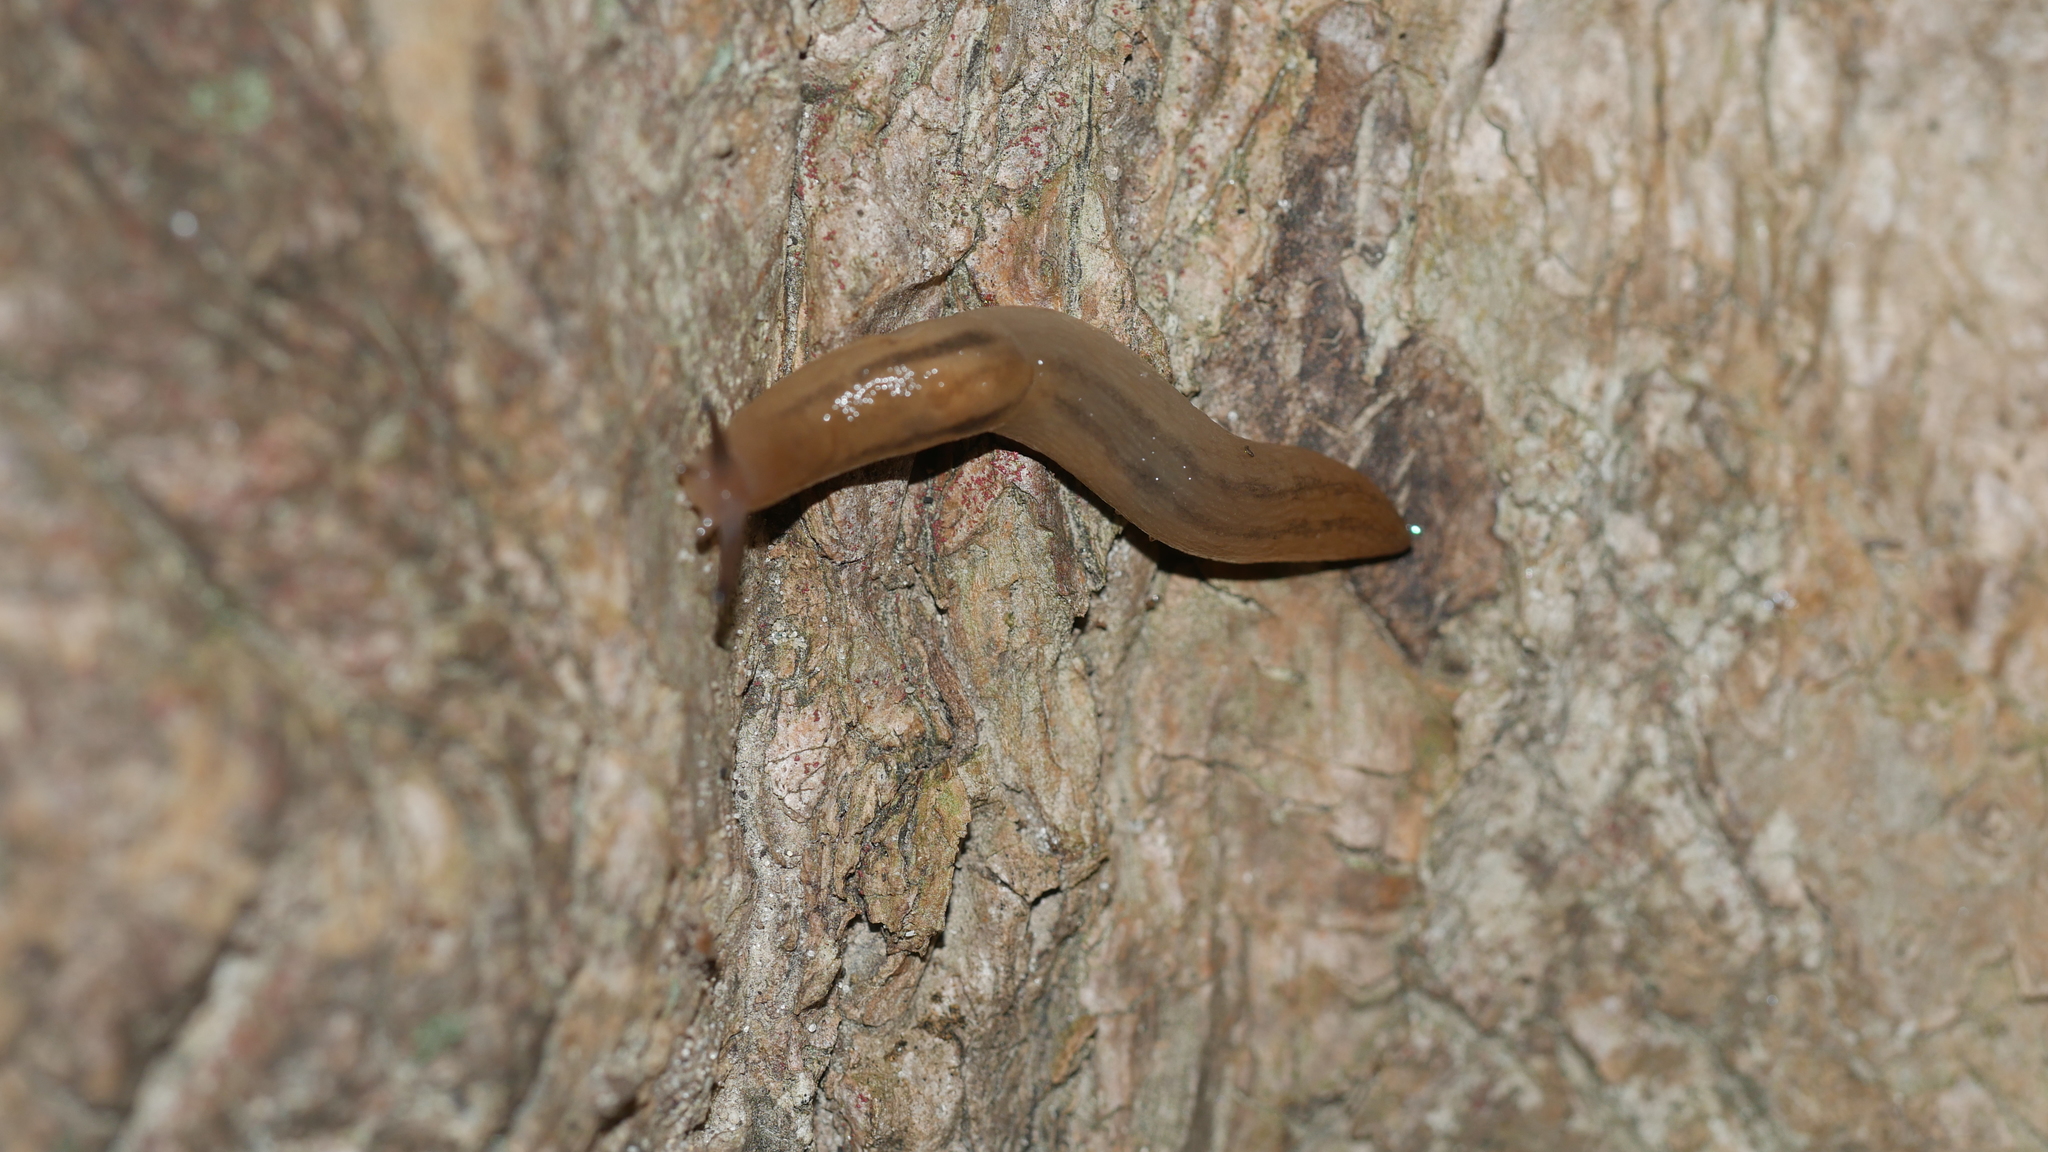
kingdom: Animalia
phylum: Mollusca
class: Gastropoda
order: Stylommatophora
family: Limacidae
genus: Ambigolimax
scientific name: Ambigolimax valentianus
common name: Greenhouse slug
